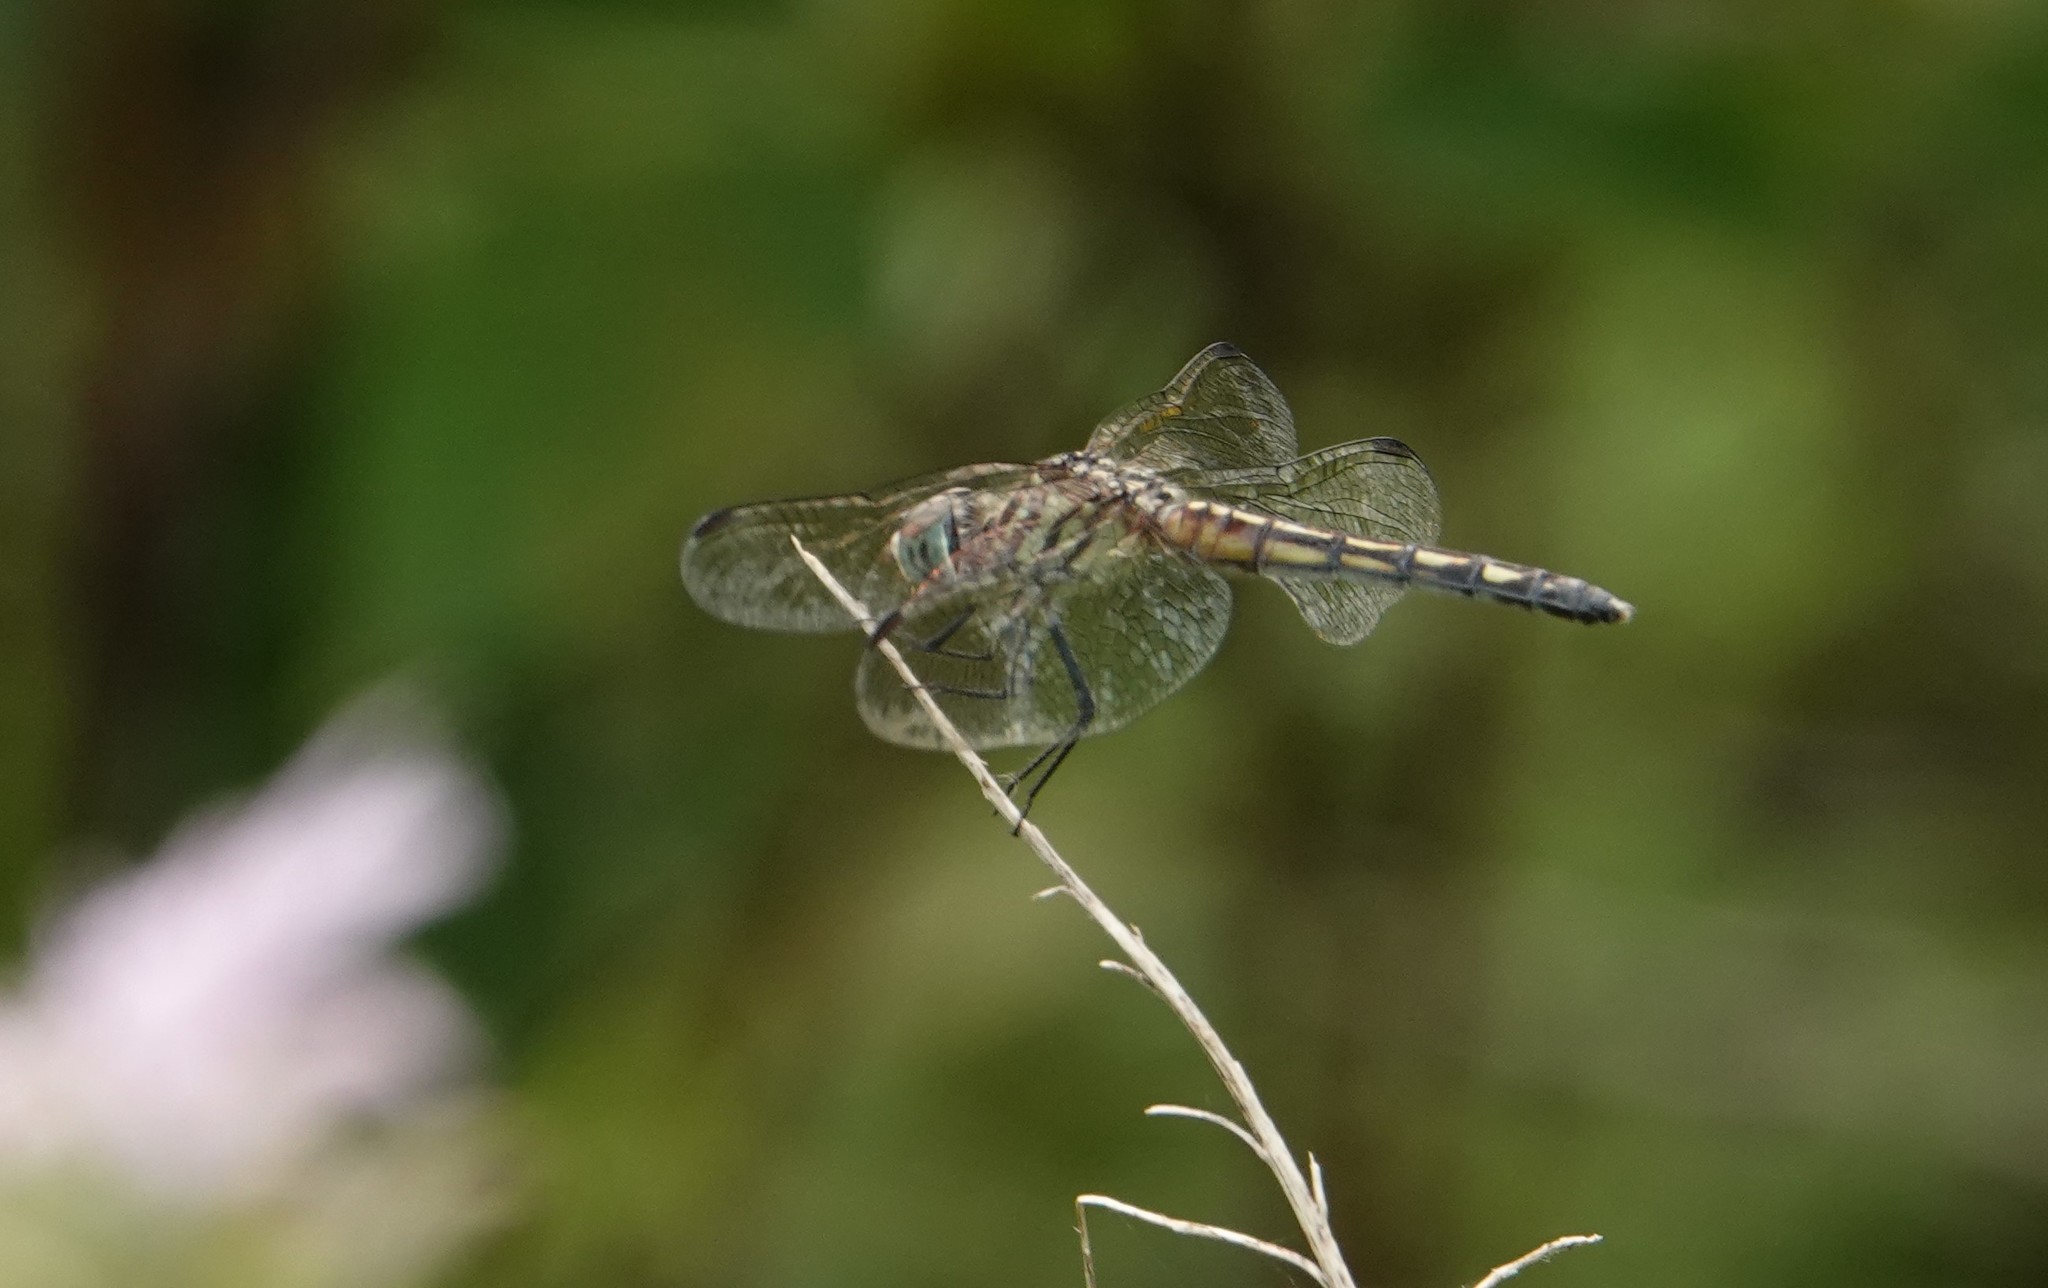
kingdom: Animalia
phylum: Arthropoda
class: Insecta
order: Odonata
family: Libellulidae
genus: Pachydiplax
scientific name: Pachydiplax longipennis
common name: Blue dasher
